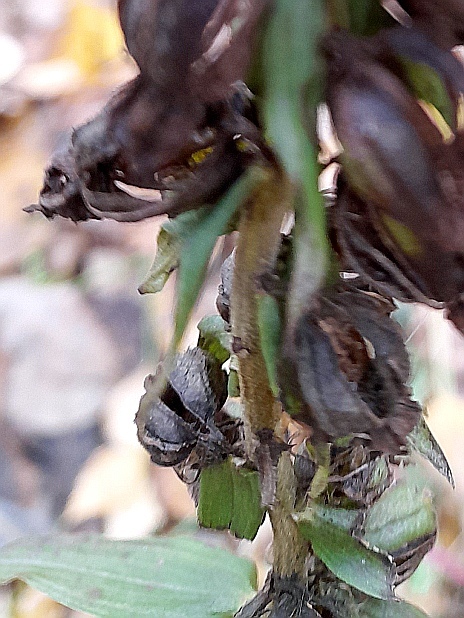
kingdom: Plantae
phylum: Tracheophyta
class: Liliopsida
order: Asparagales
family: Orchidaceae
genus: Epipactis
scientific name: Epipactis helleborine
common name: Broad-leaved helleborine
